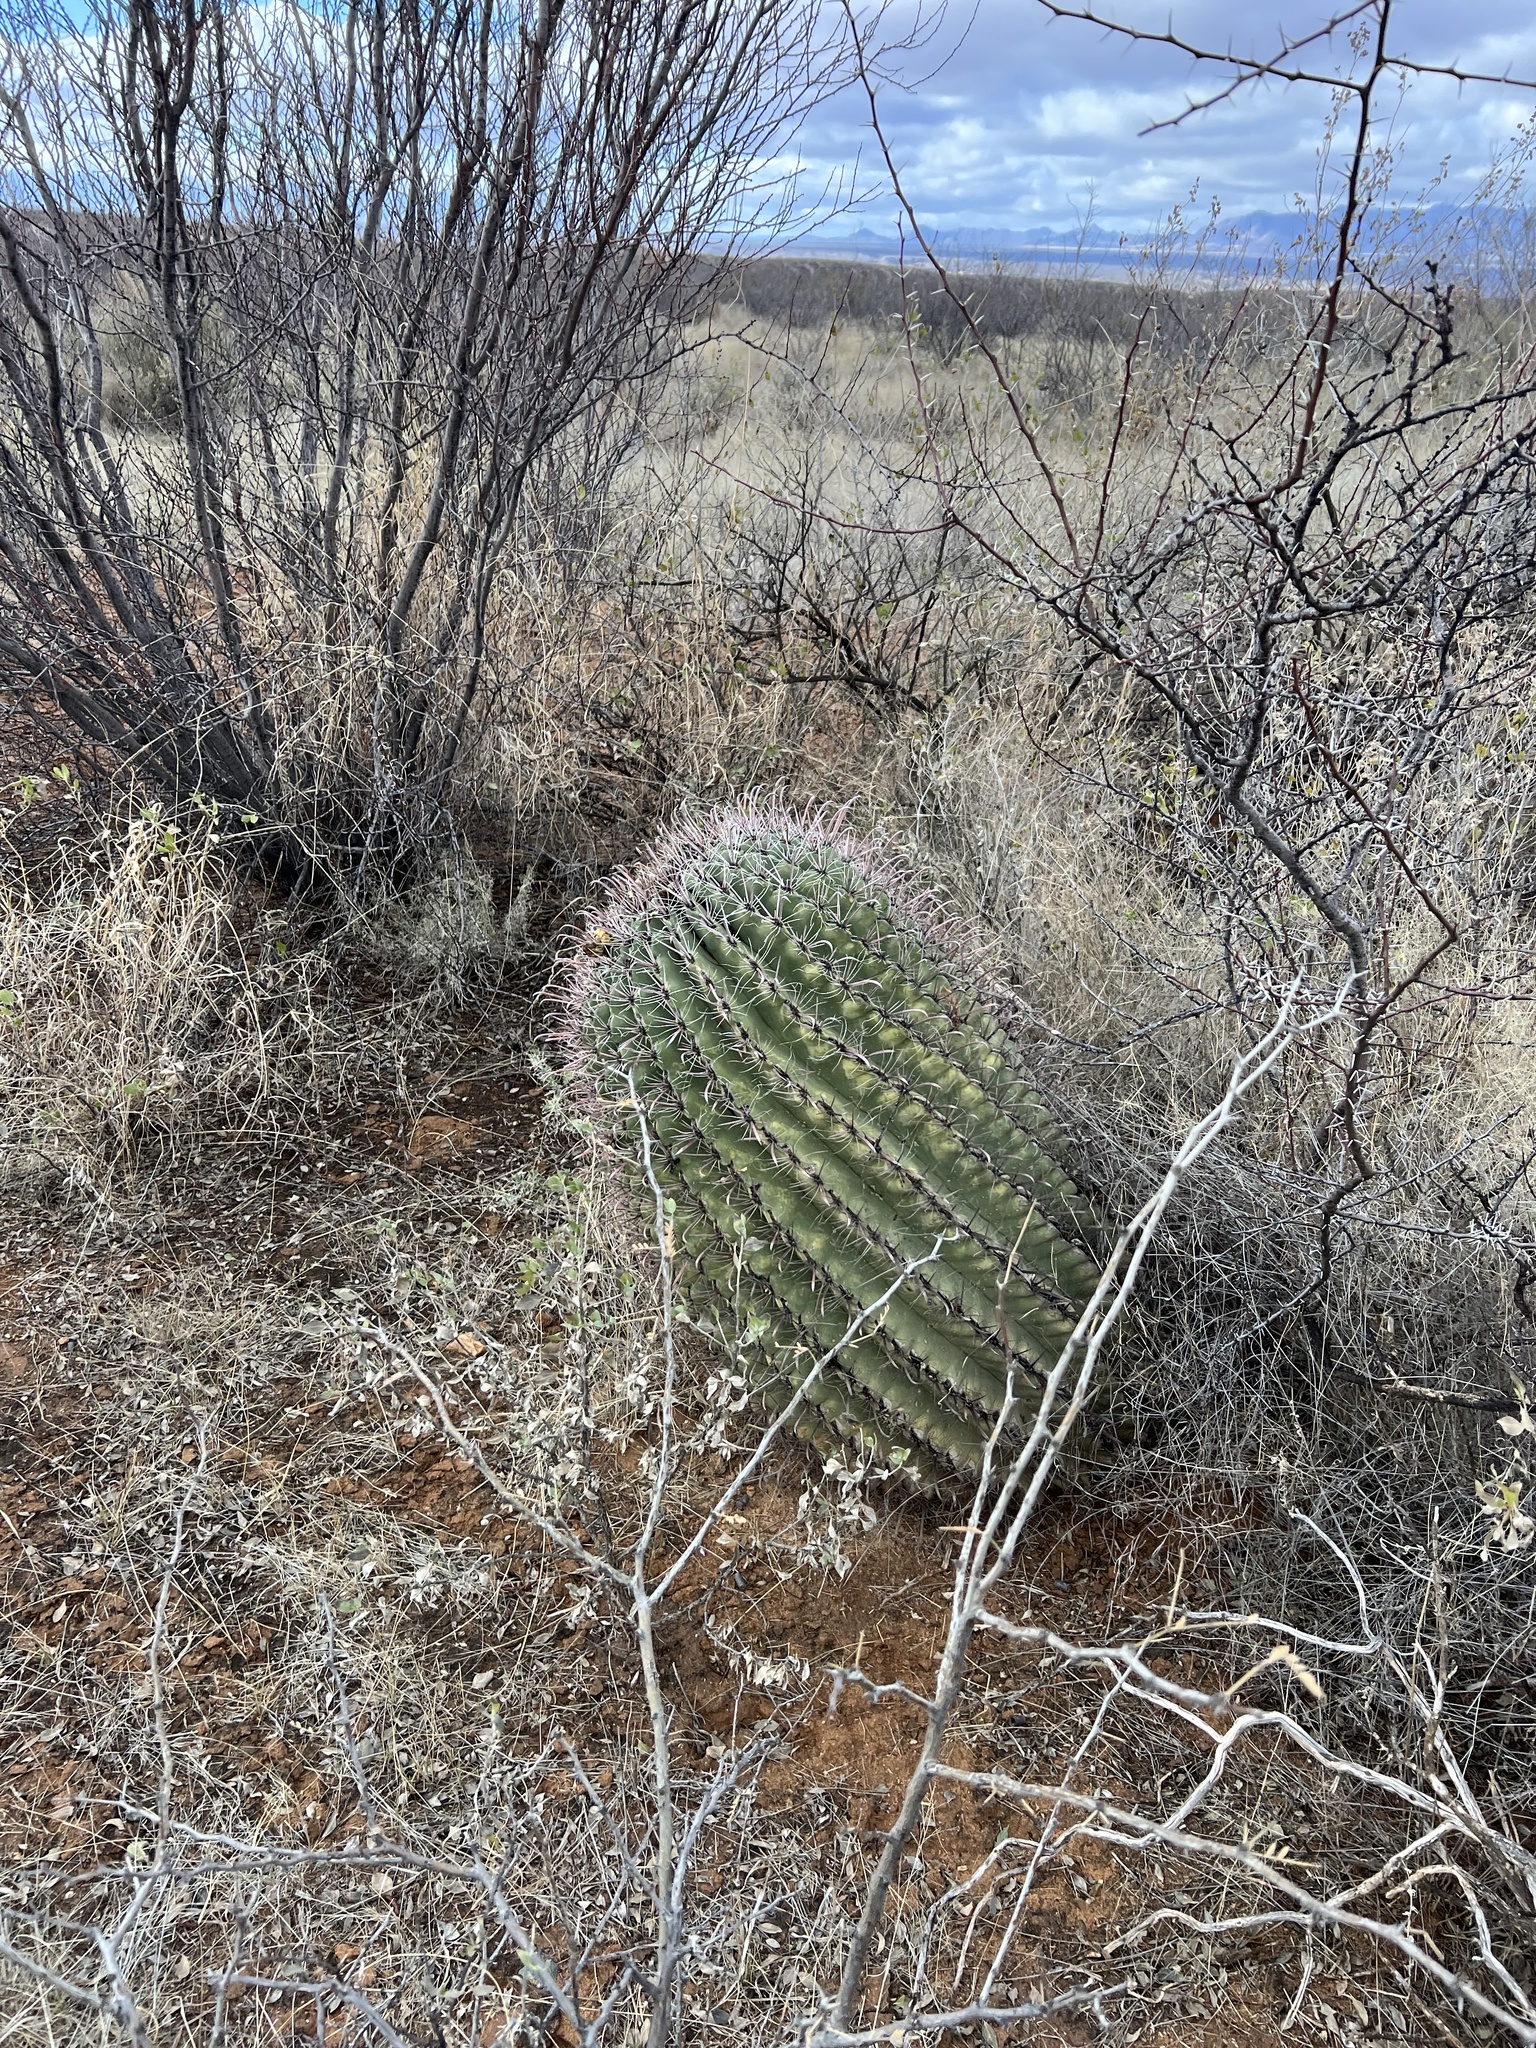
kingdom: Plantae
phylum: Tracheophyta
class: Magnoliopsida
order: Caryophyllales
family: Cactaceae
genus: Ferocactus
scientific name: Ferocactus wislizeni
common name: Candy barrel cactus
